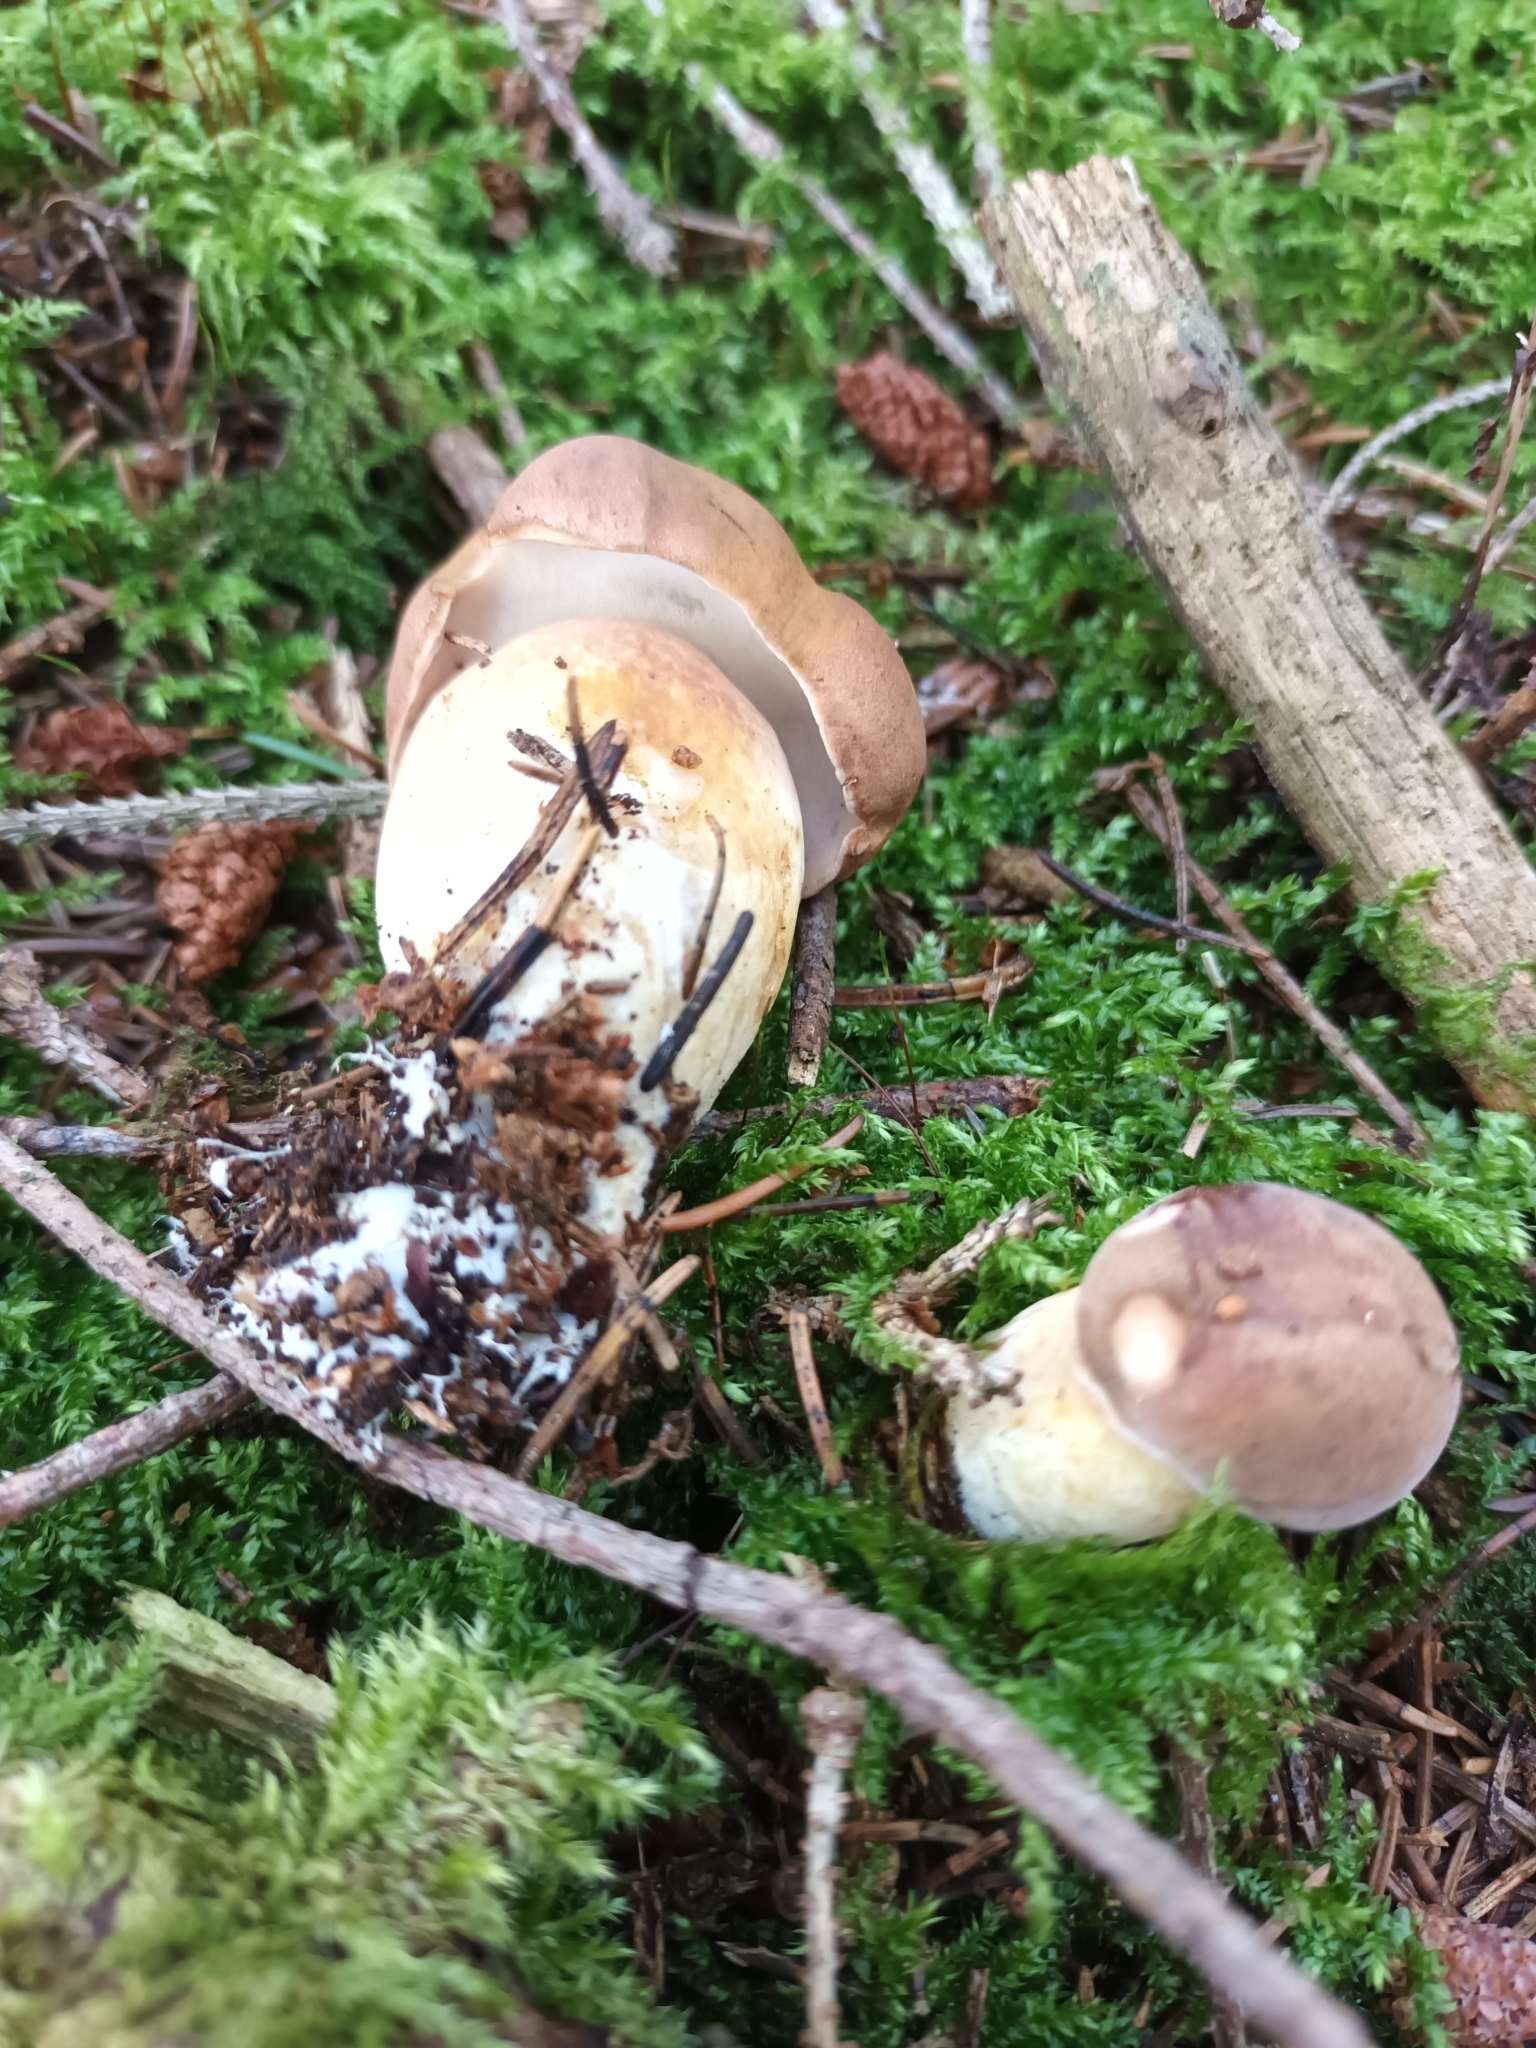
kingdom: Fungi
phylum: Basidiomycota
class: Agaricomycetes
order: Boletales
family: Boletaceae
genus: Imleria
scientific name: Imleria badia
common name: Bay bolete
